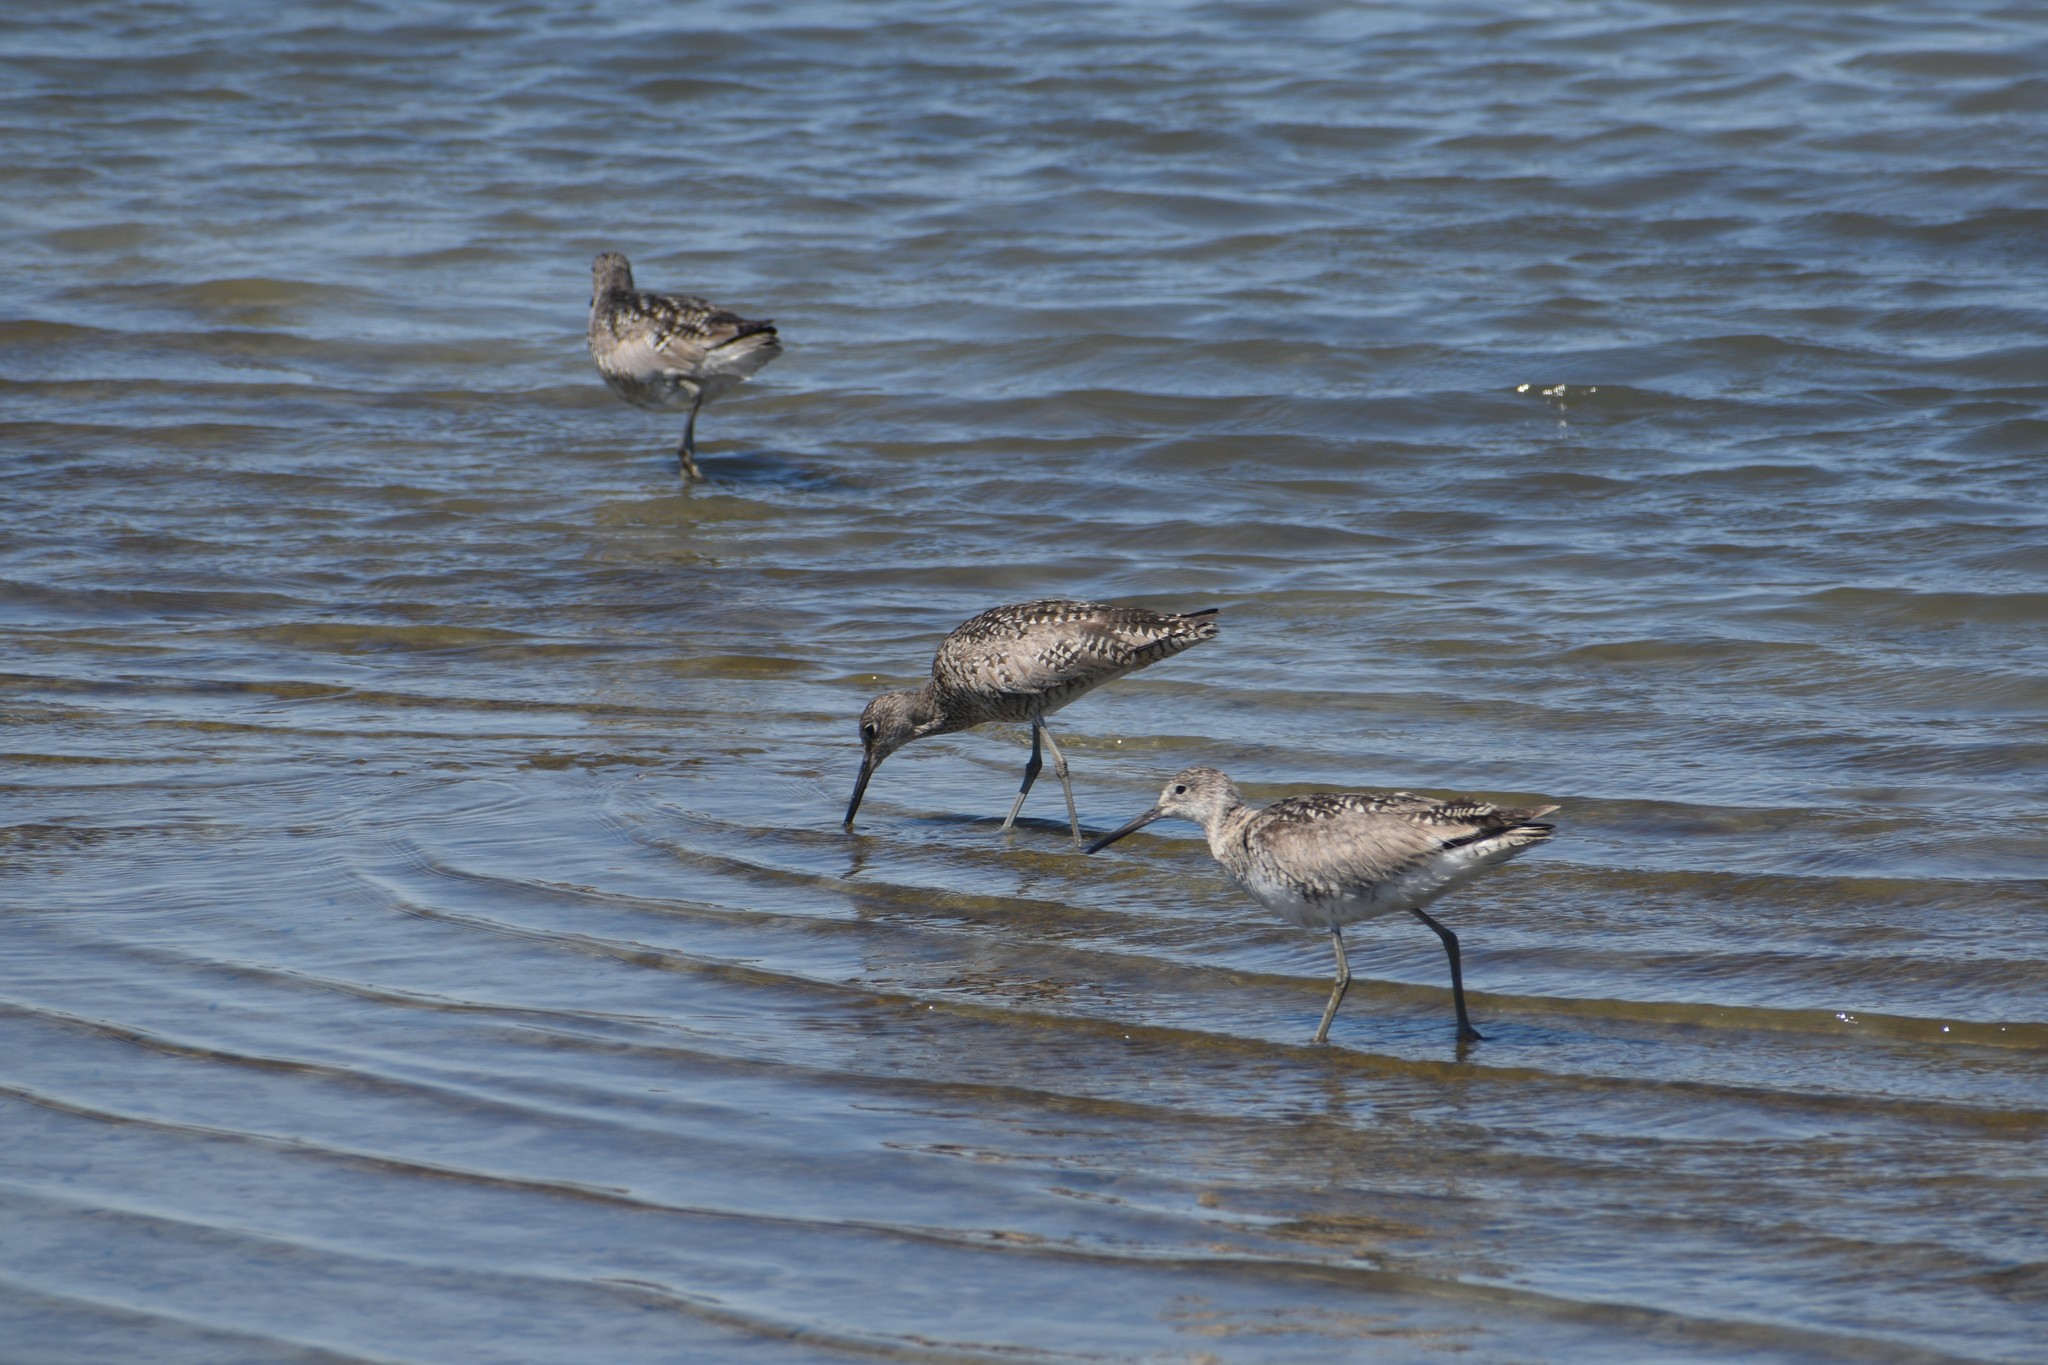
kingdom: Animalia
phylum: Chordata
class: Aves
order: Charadriiformes
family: Scolopacidae
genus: Tringa
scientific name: Tringa semipalmata
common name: Willet
